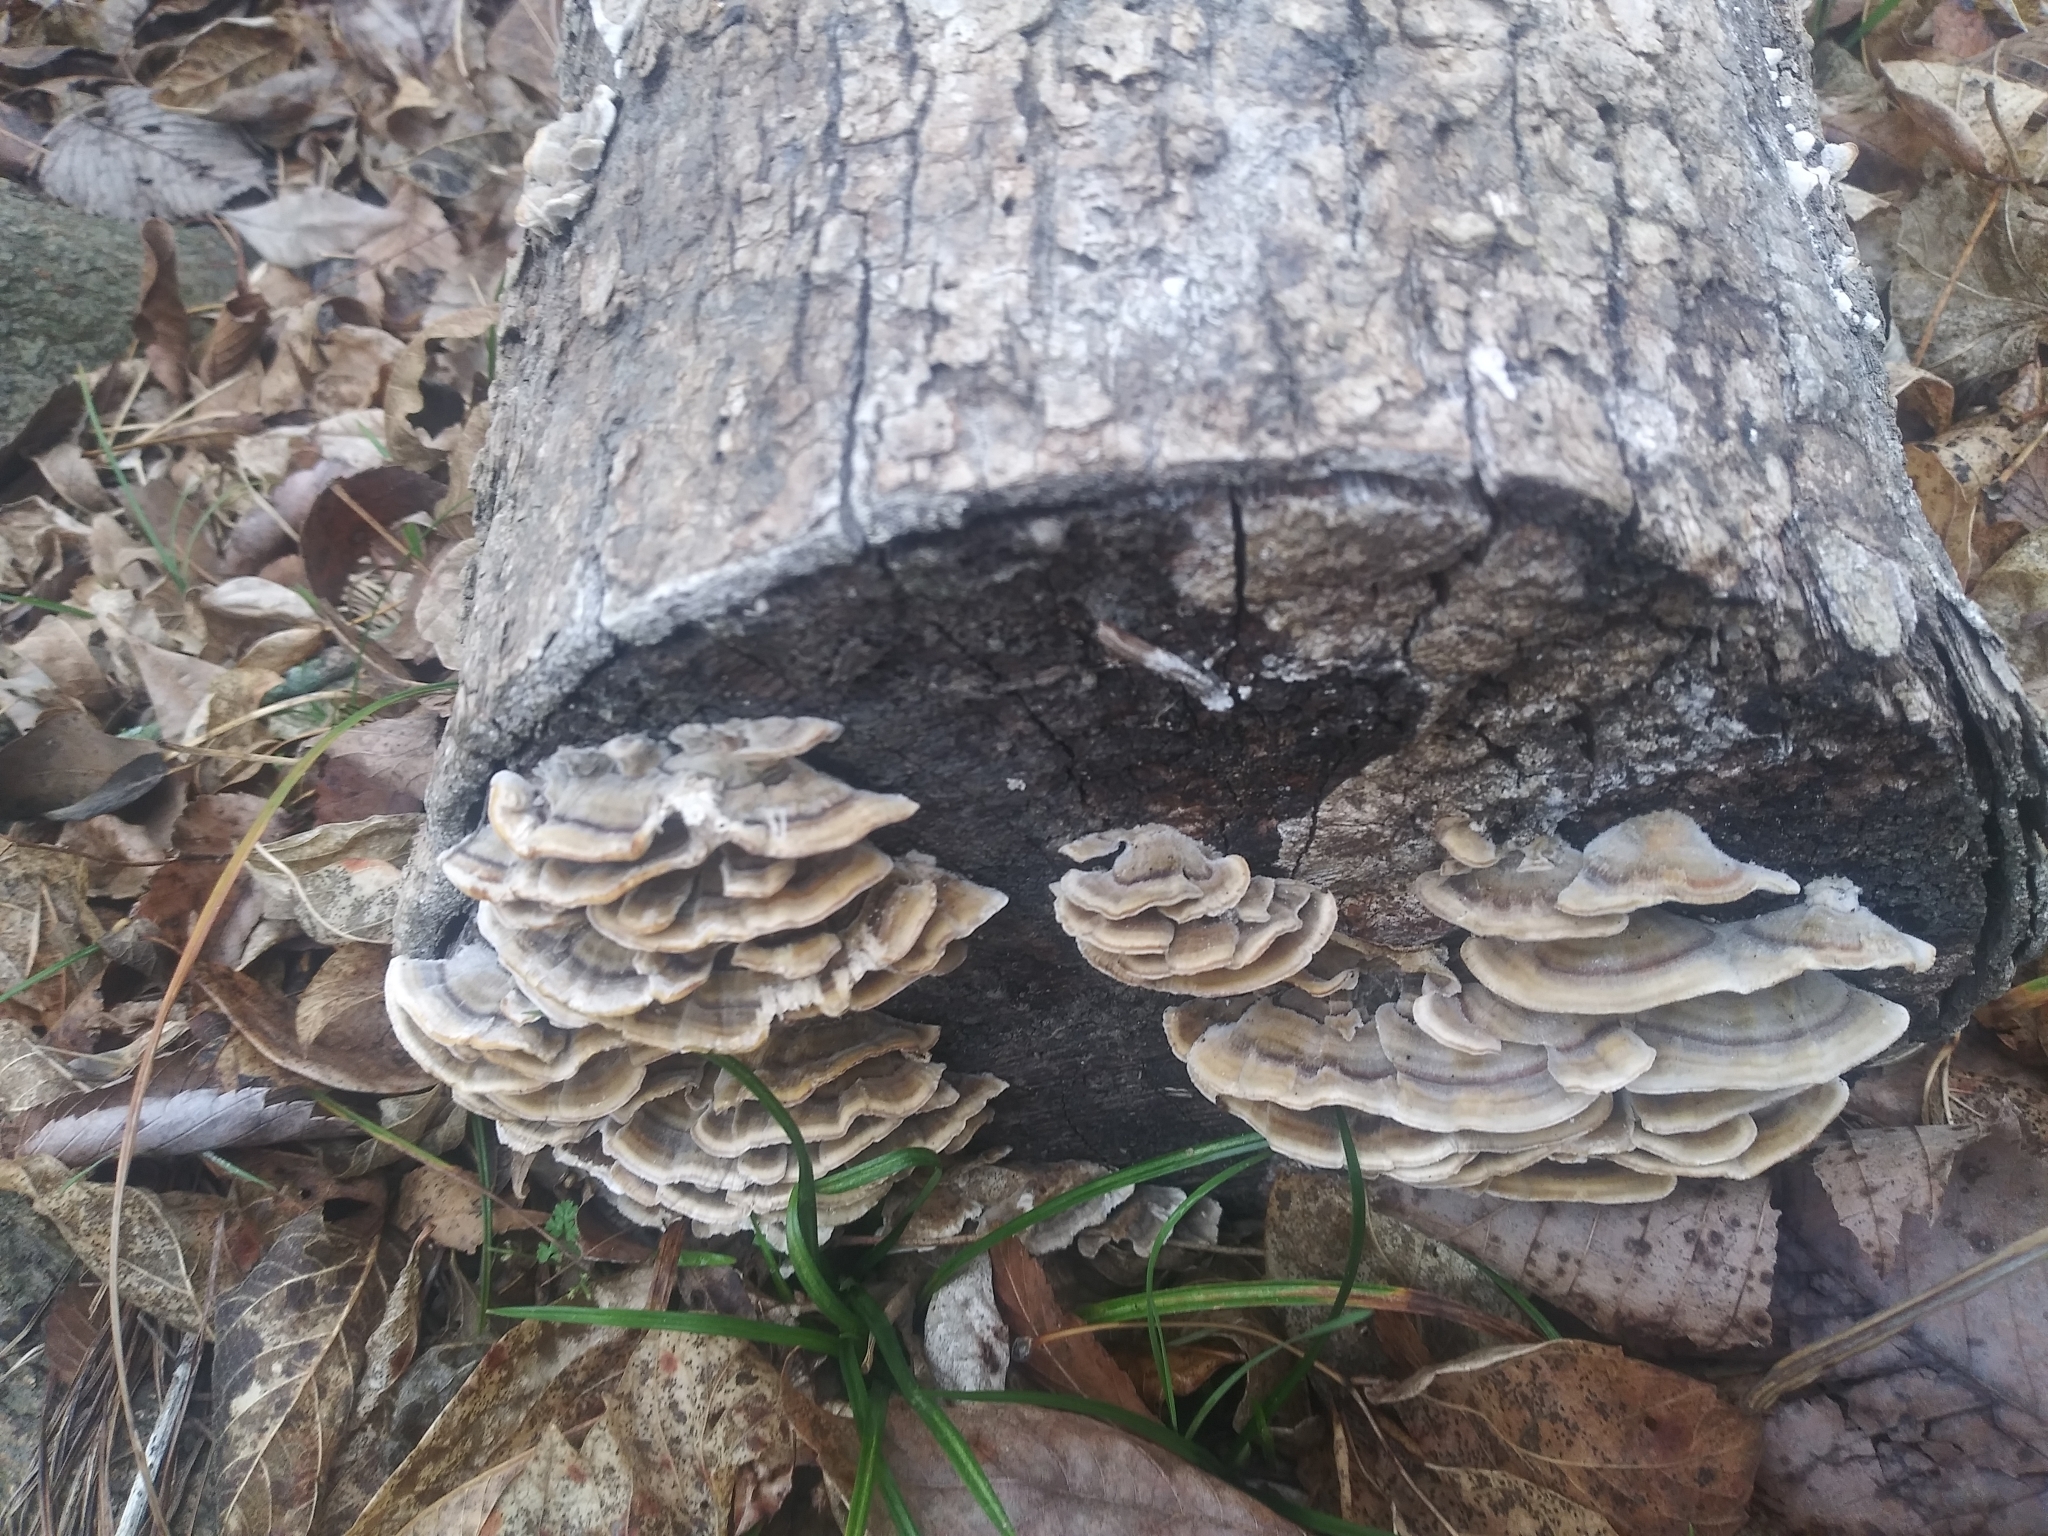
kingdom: Fungi
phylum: Basidiomycota
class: Agaricomycetes
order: Polyporales
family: Polyporaceae
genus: Trametes
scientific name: Trametes versicolor
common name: Turkeytail
